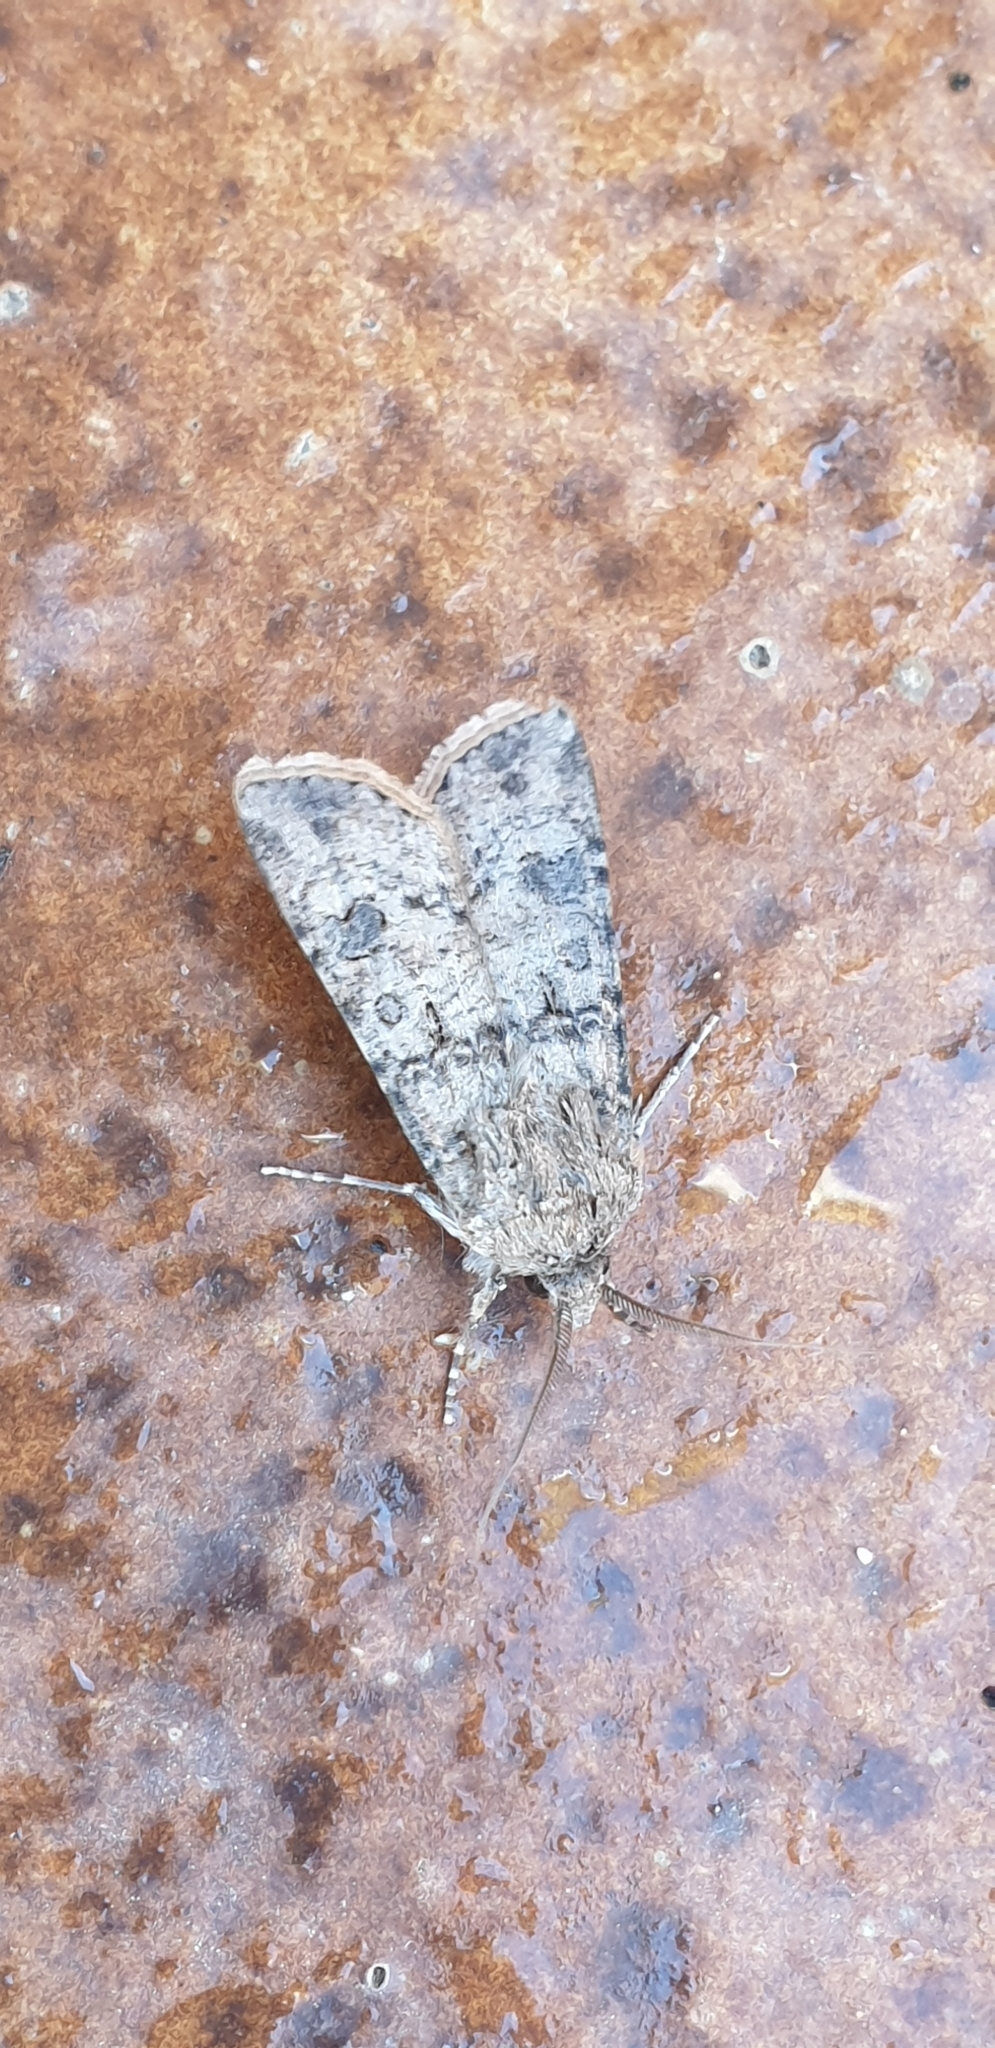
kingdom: Animalia
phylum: Arthropoda
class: Insecta
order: Lepidoptera
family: Noctuidae
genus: Agrotis
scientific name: Agrotis segetum
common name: Turnip moth
